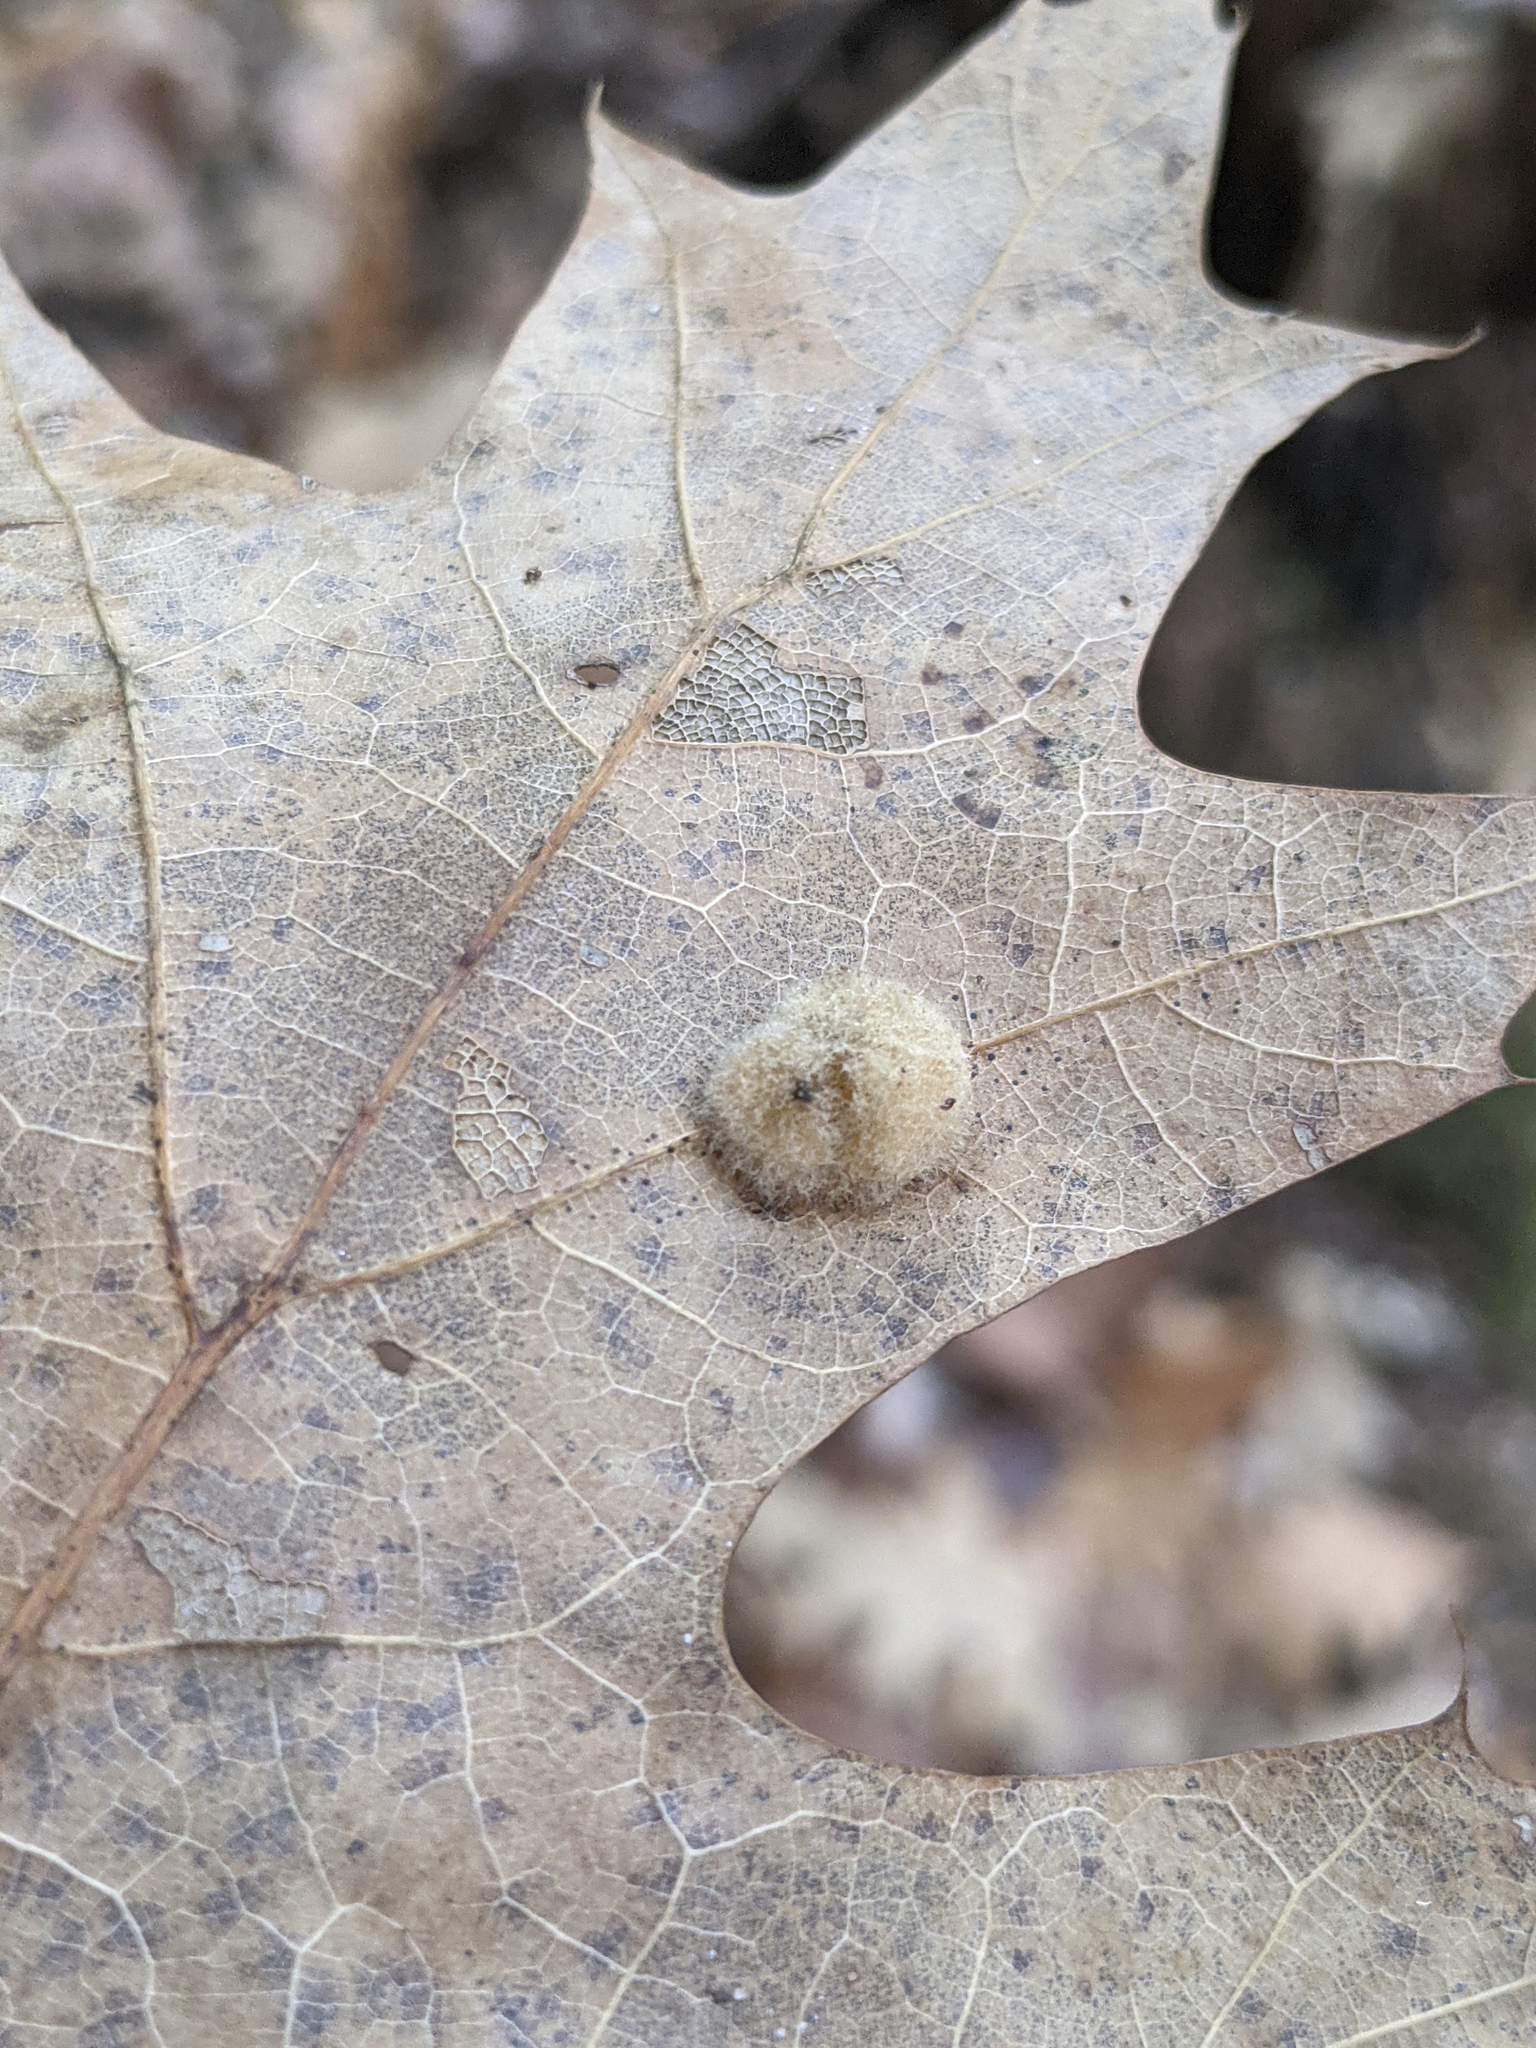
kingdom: Animalia
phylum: Arthropoda
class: Insecta
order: Hymenoptera
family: Cynipidae
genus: Callirhytis
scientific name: Callirhytis
